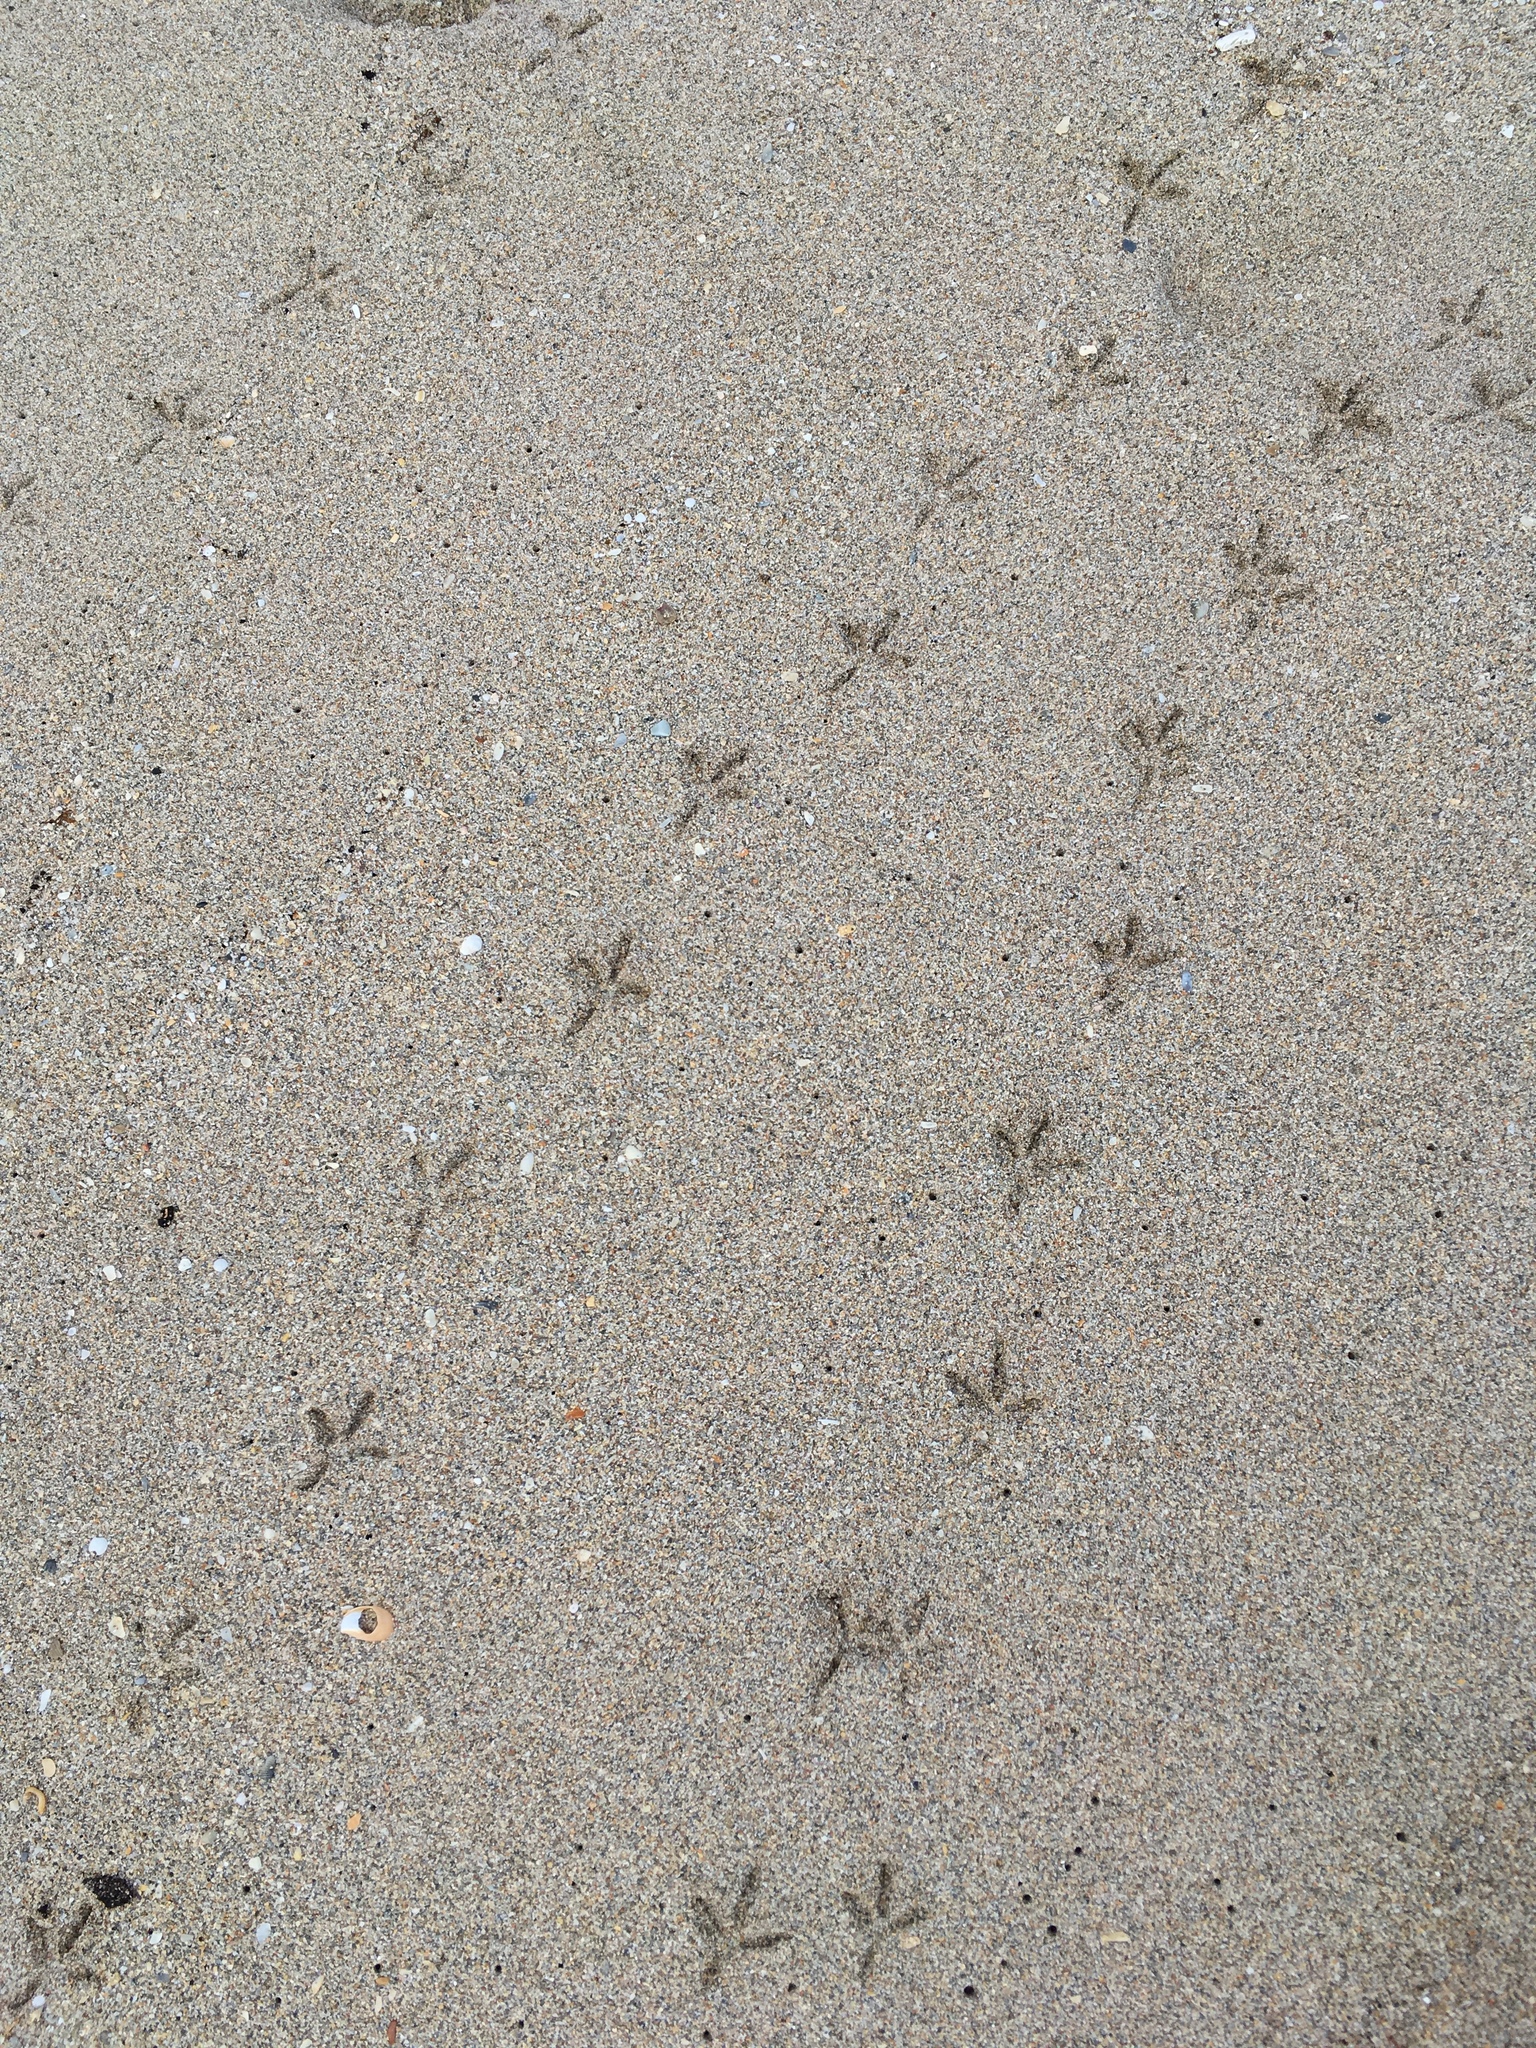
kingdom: Animalia
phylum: Chordata
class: Aves
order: Columbiformes
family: Columbidae
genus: Columba
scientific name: Columba livia
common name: Rock pigeon
